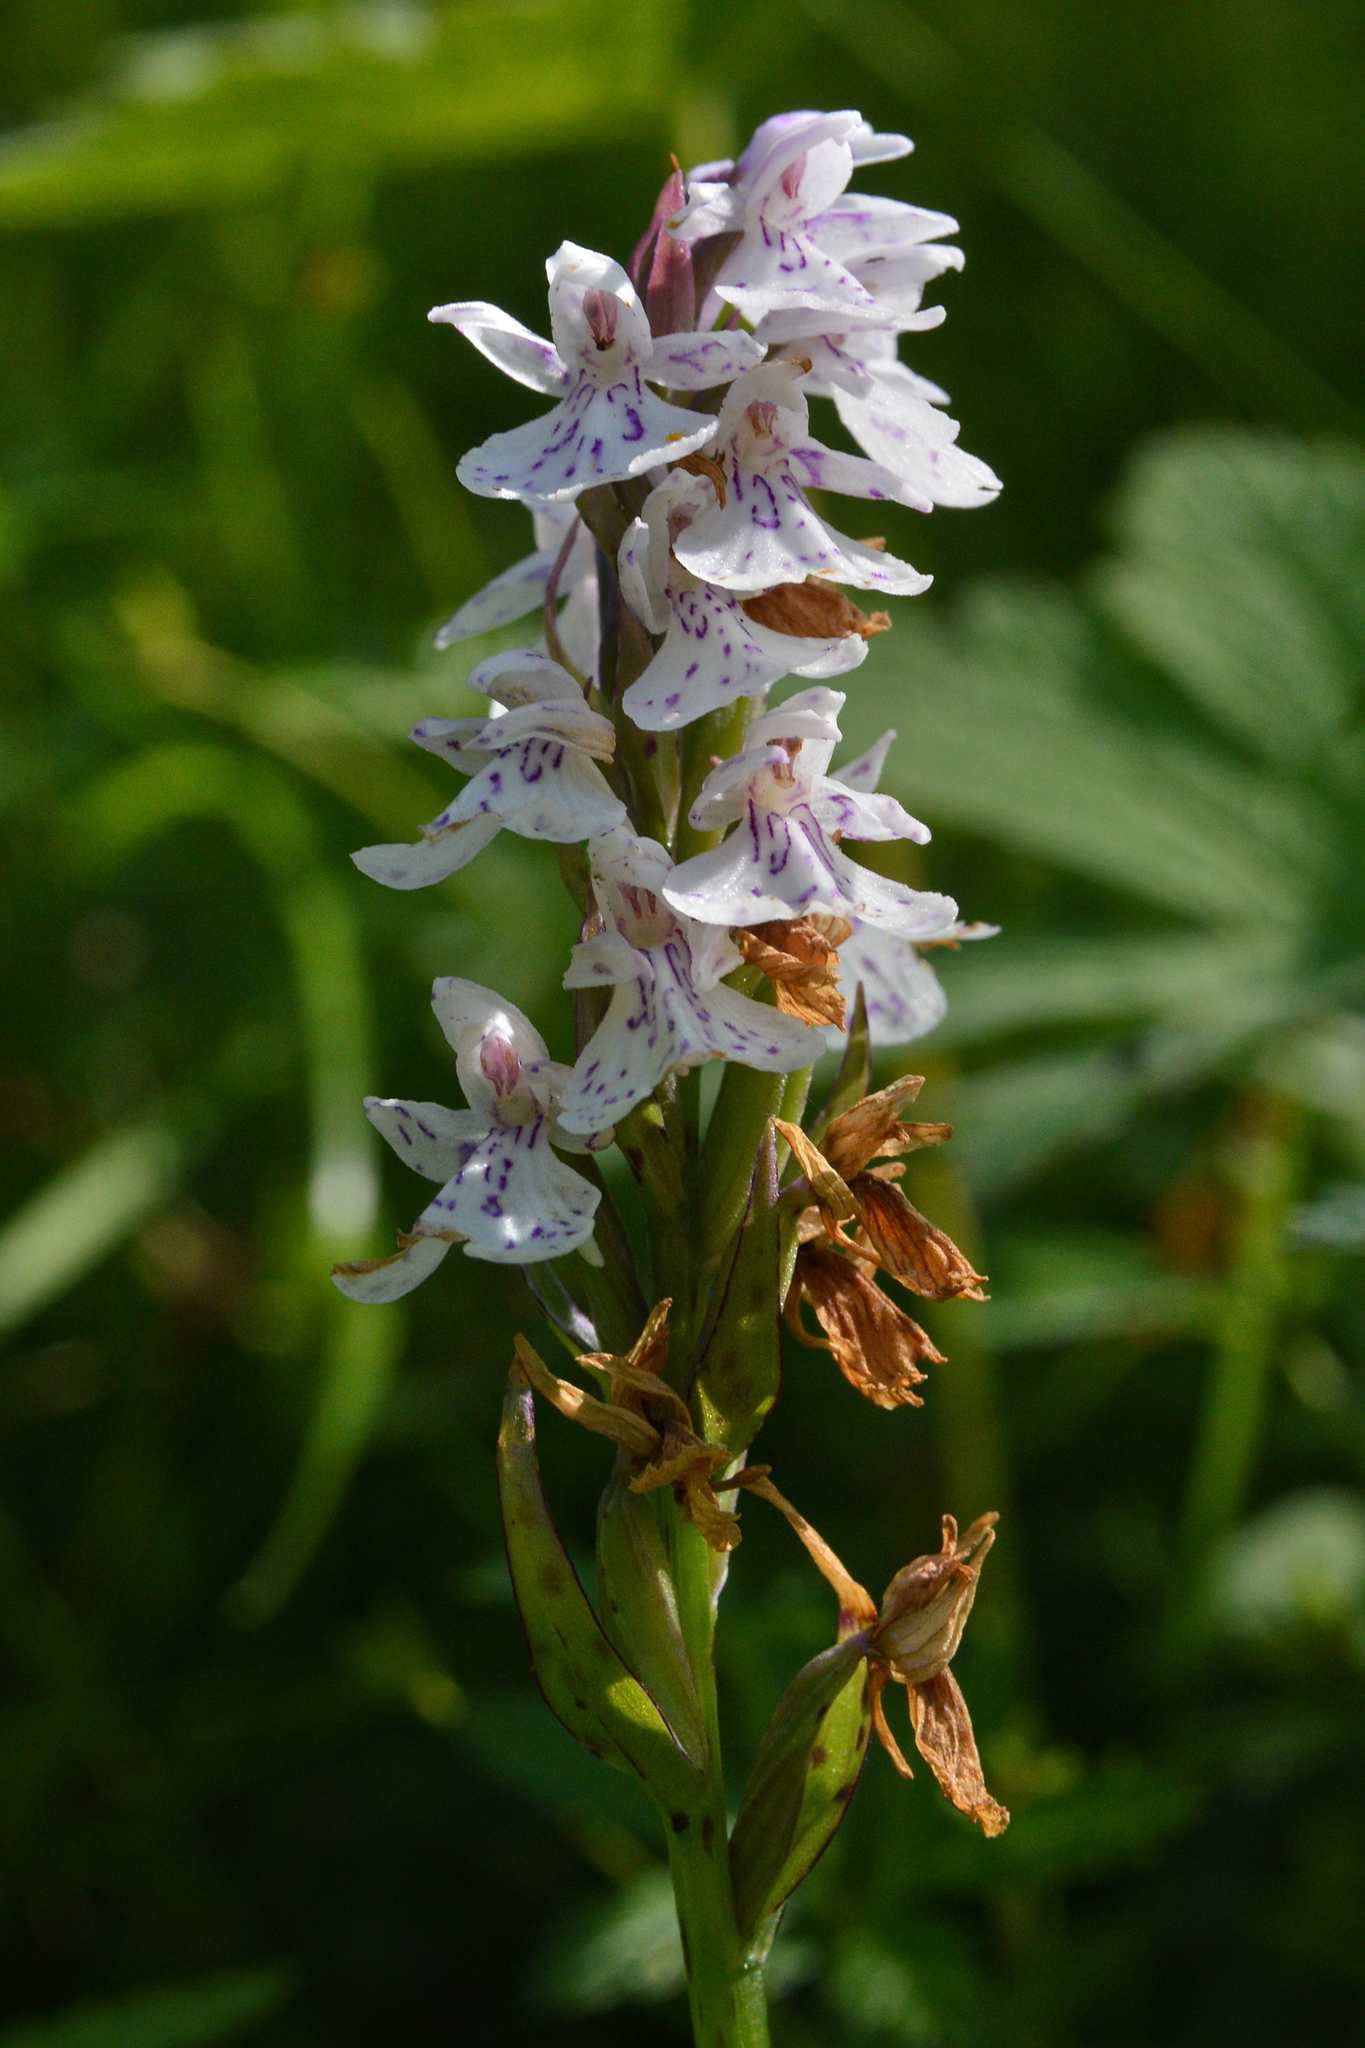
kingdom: Plantae
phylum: Tracheophyta
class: Liliopsida
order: Asparagales
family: Orchidaceae
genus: Dactylorhiza
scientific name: Dactylorhiza maculata
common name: Heath spotted-orchid
